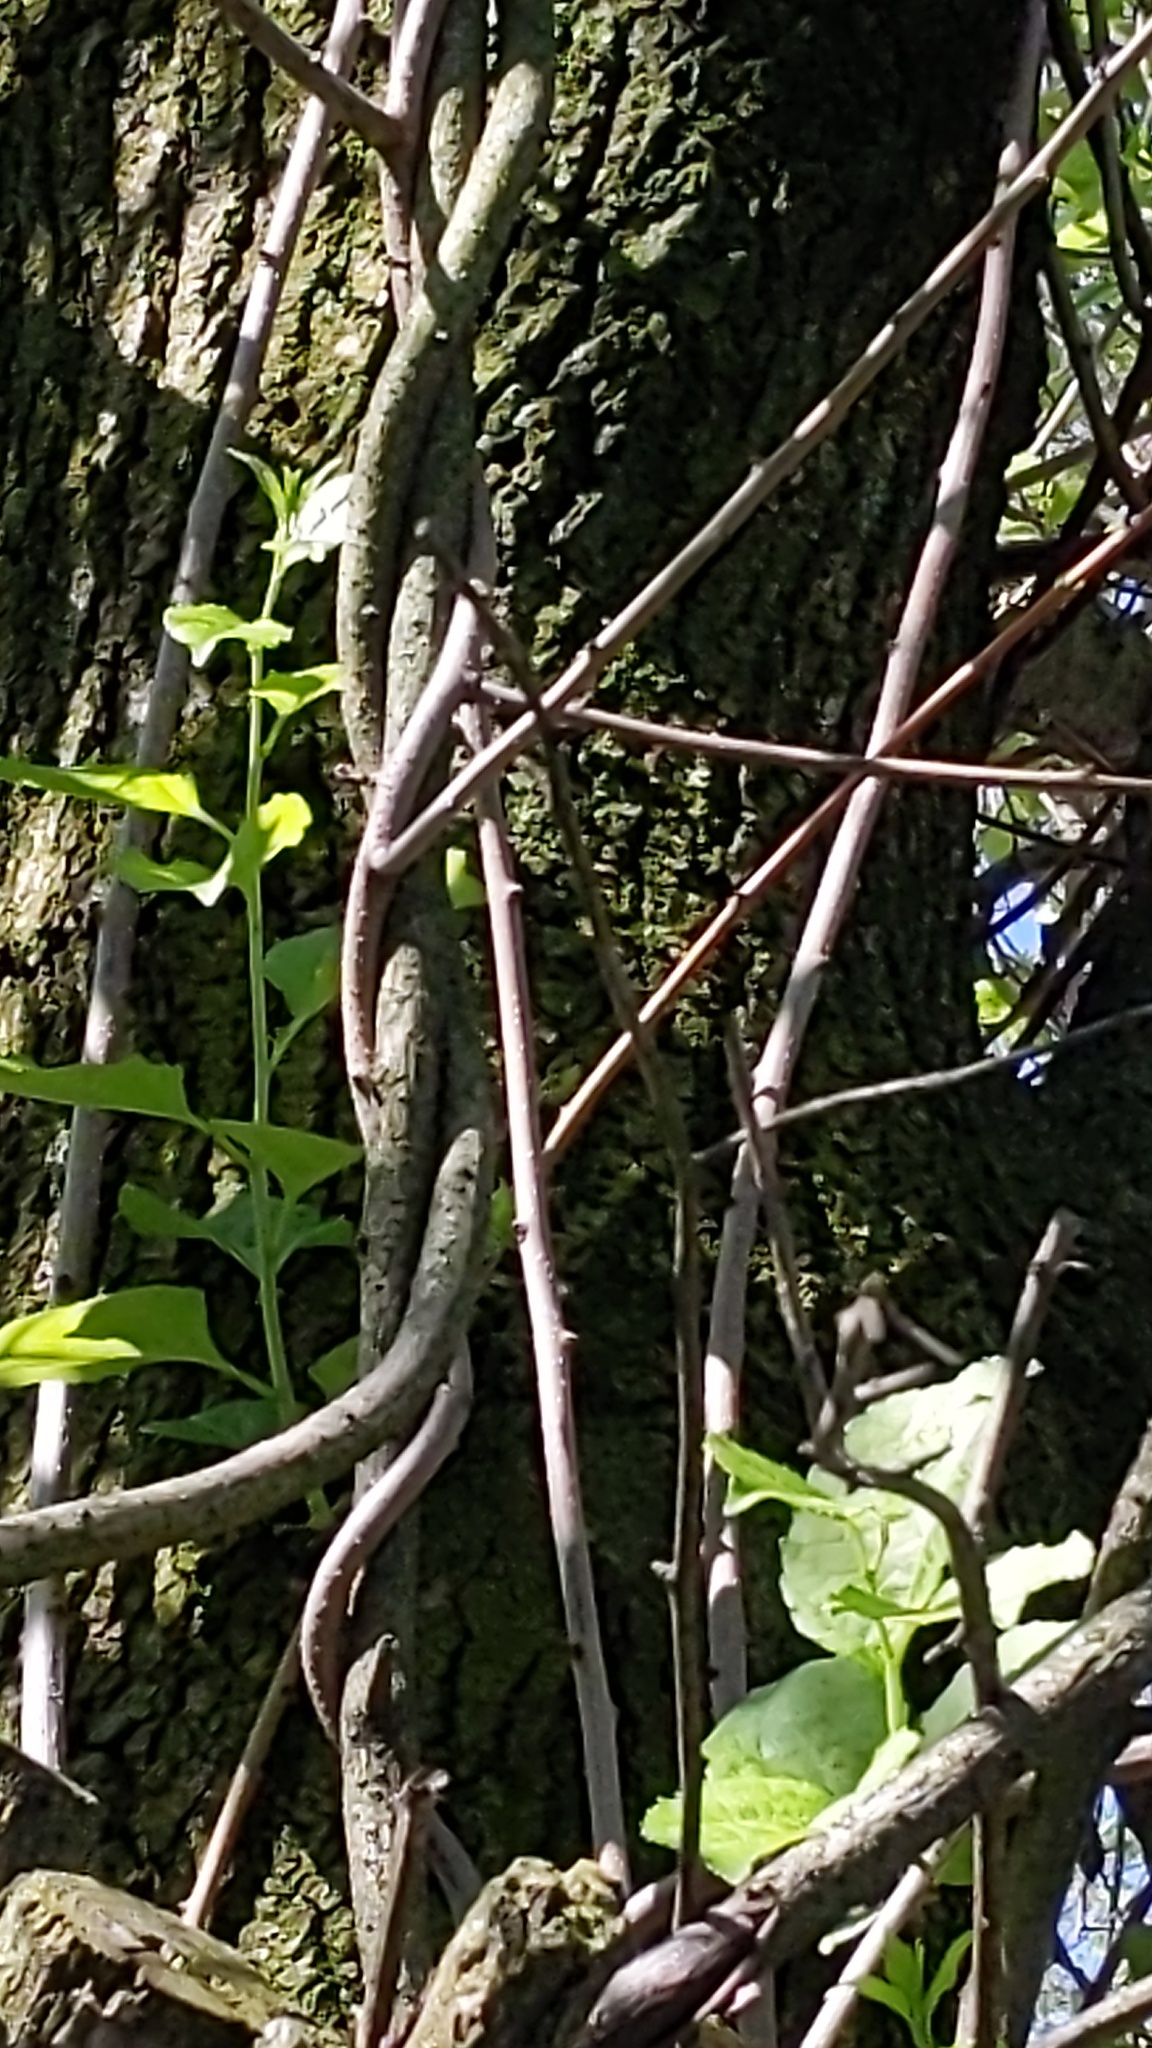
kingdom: Plantae
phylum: Tracheophyta
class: Magnoliopsida
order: Celastrales
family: Celastraceae
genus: Celastrus
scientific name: Celastrus orbiculatus
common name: Oriental bittersweet
